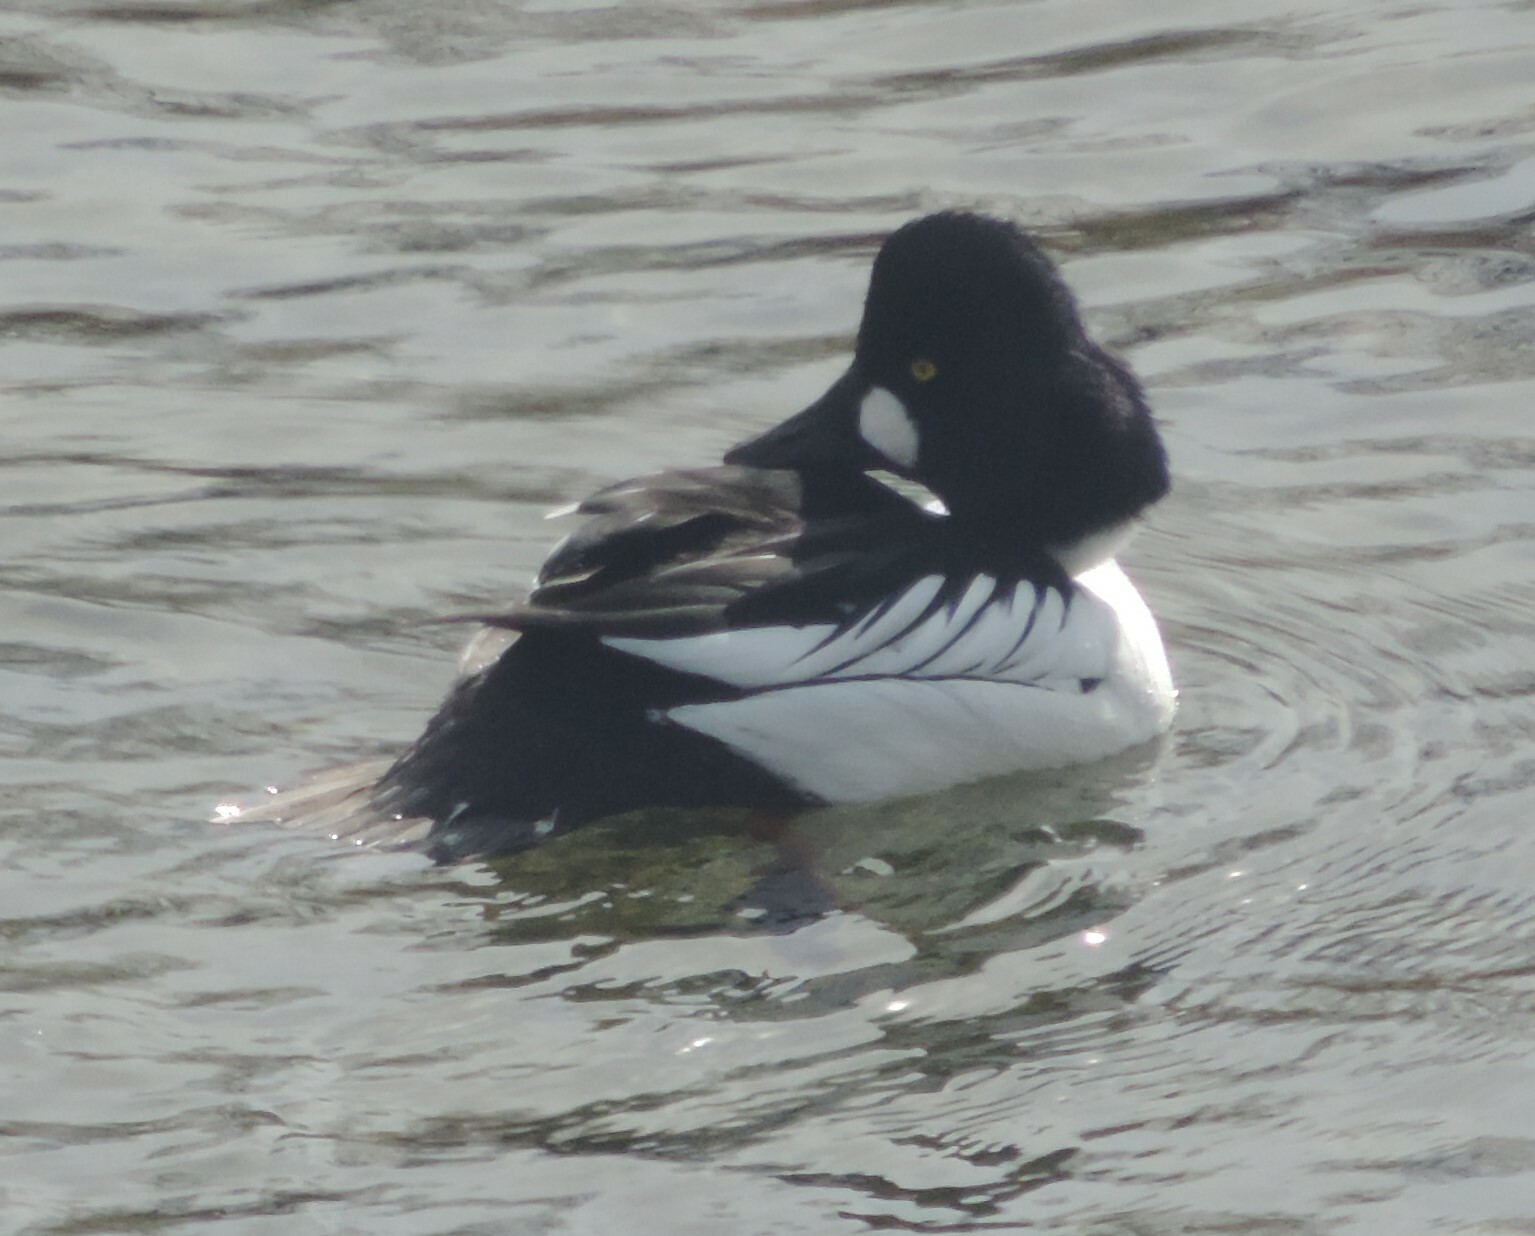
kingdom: Animalia
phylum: Chordata
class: Aves
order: Anseriformes
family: Anatidae
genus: Bucephala
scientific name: Bucephala clangula
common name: Common goldeneye
